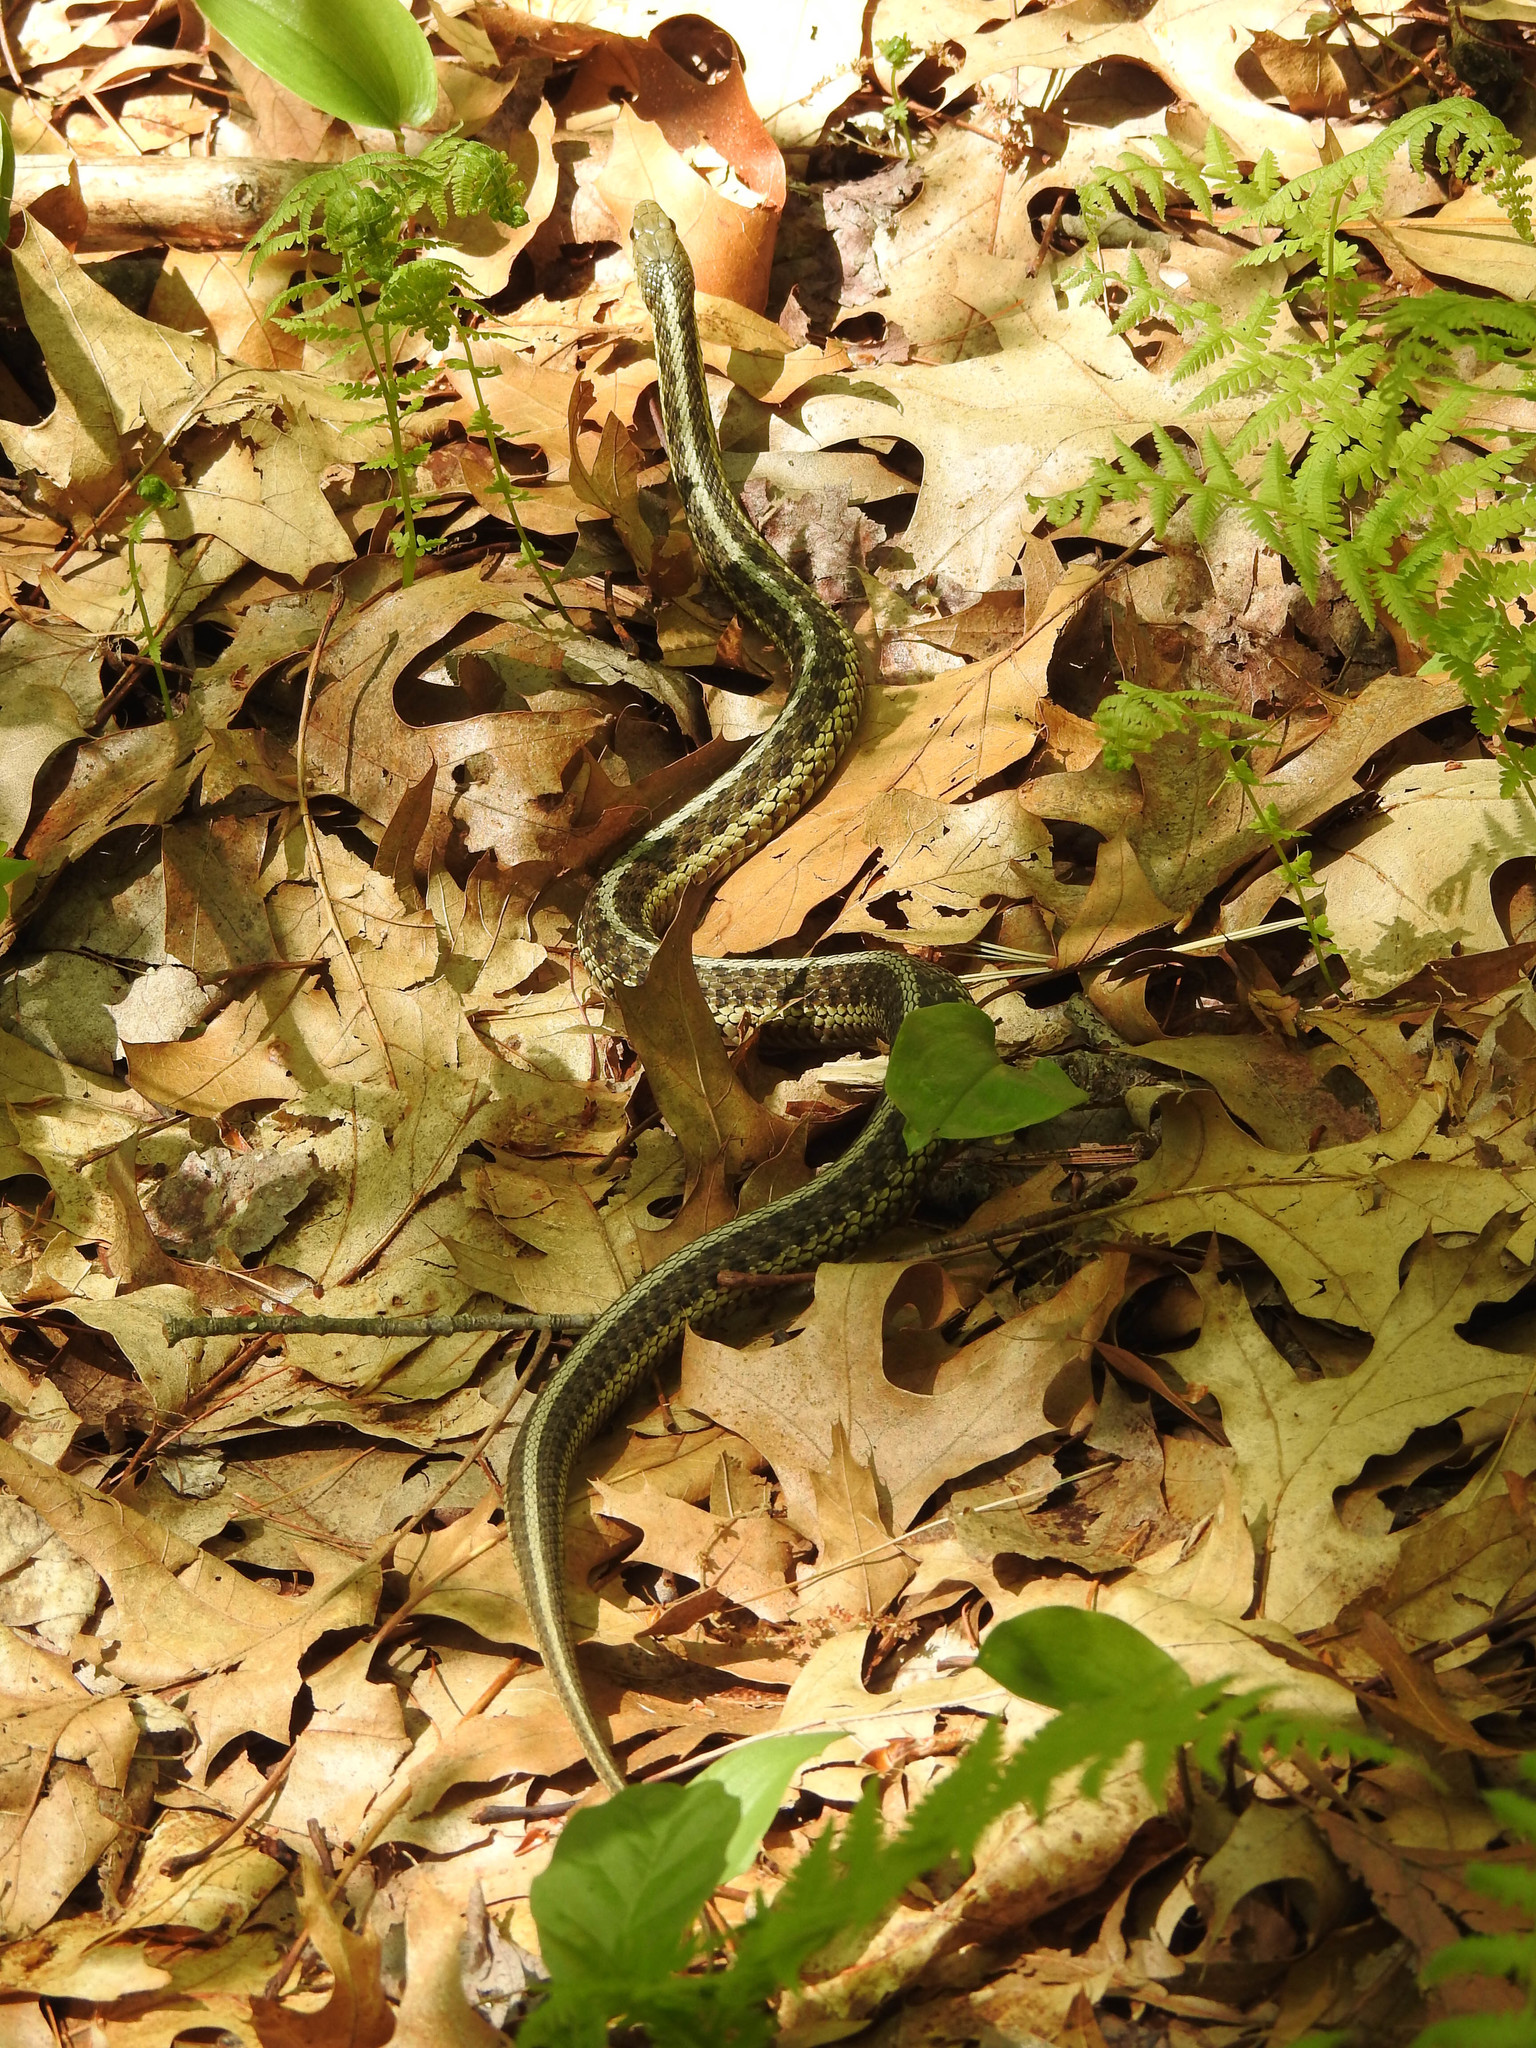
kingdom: Animalia
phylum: Chordata
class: Squamata
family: Colubridae
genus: Thamnophis
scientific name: Thamnophis sirtalis
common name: Common garter snake
